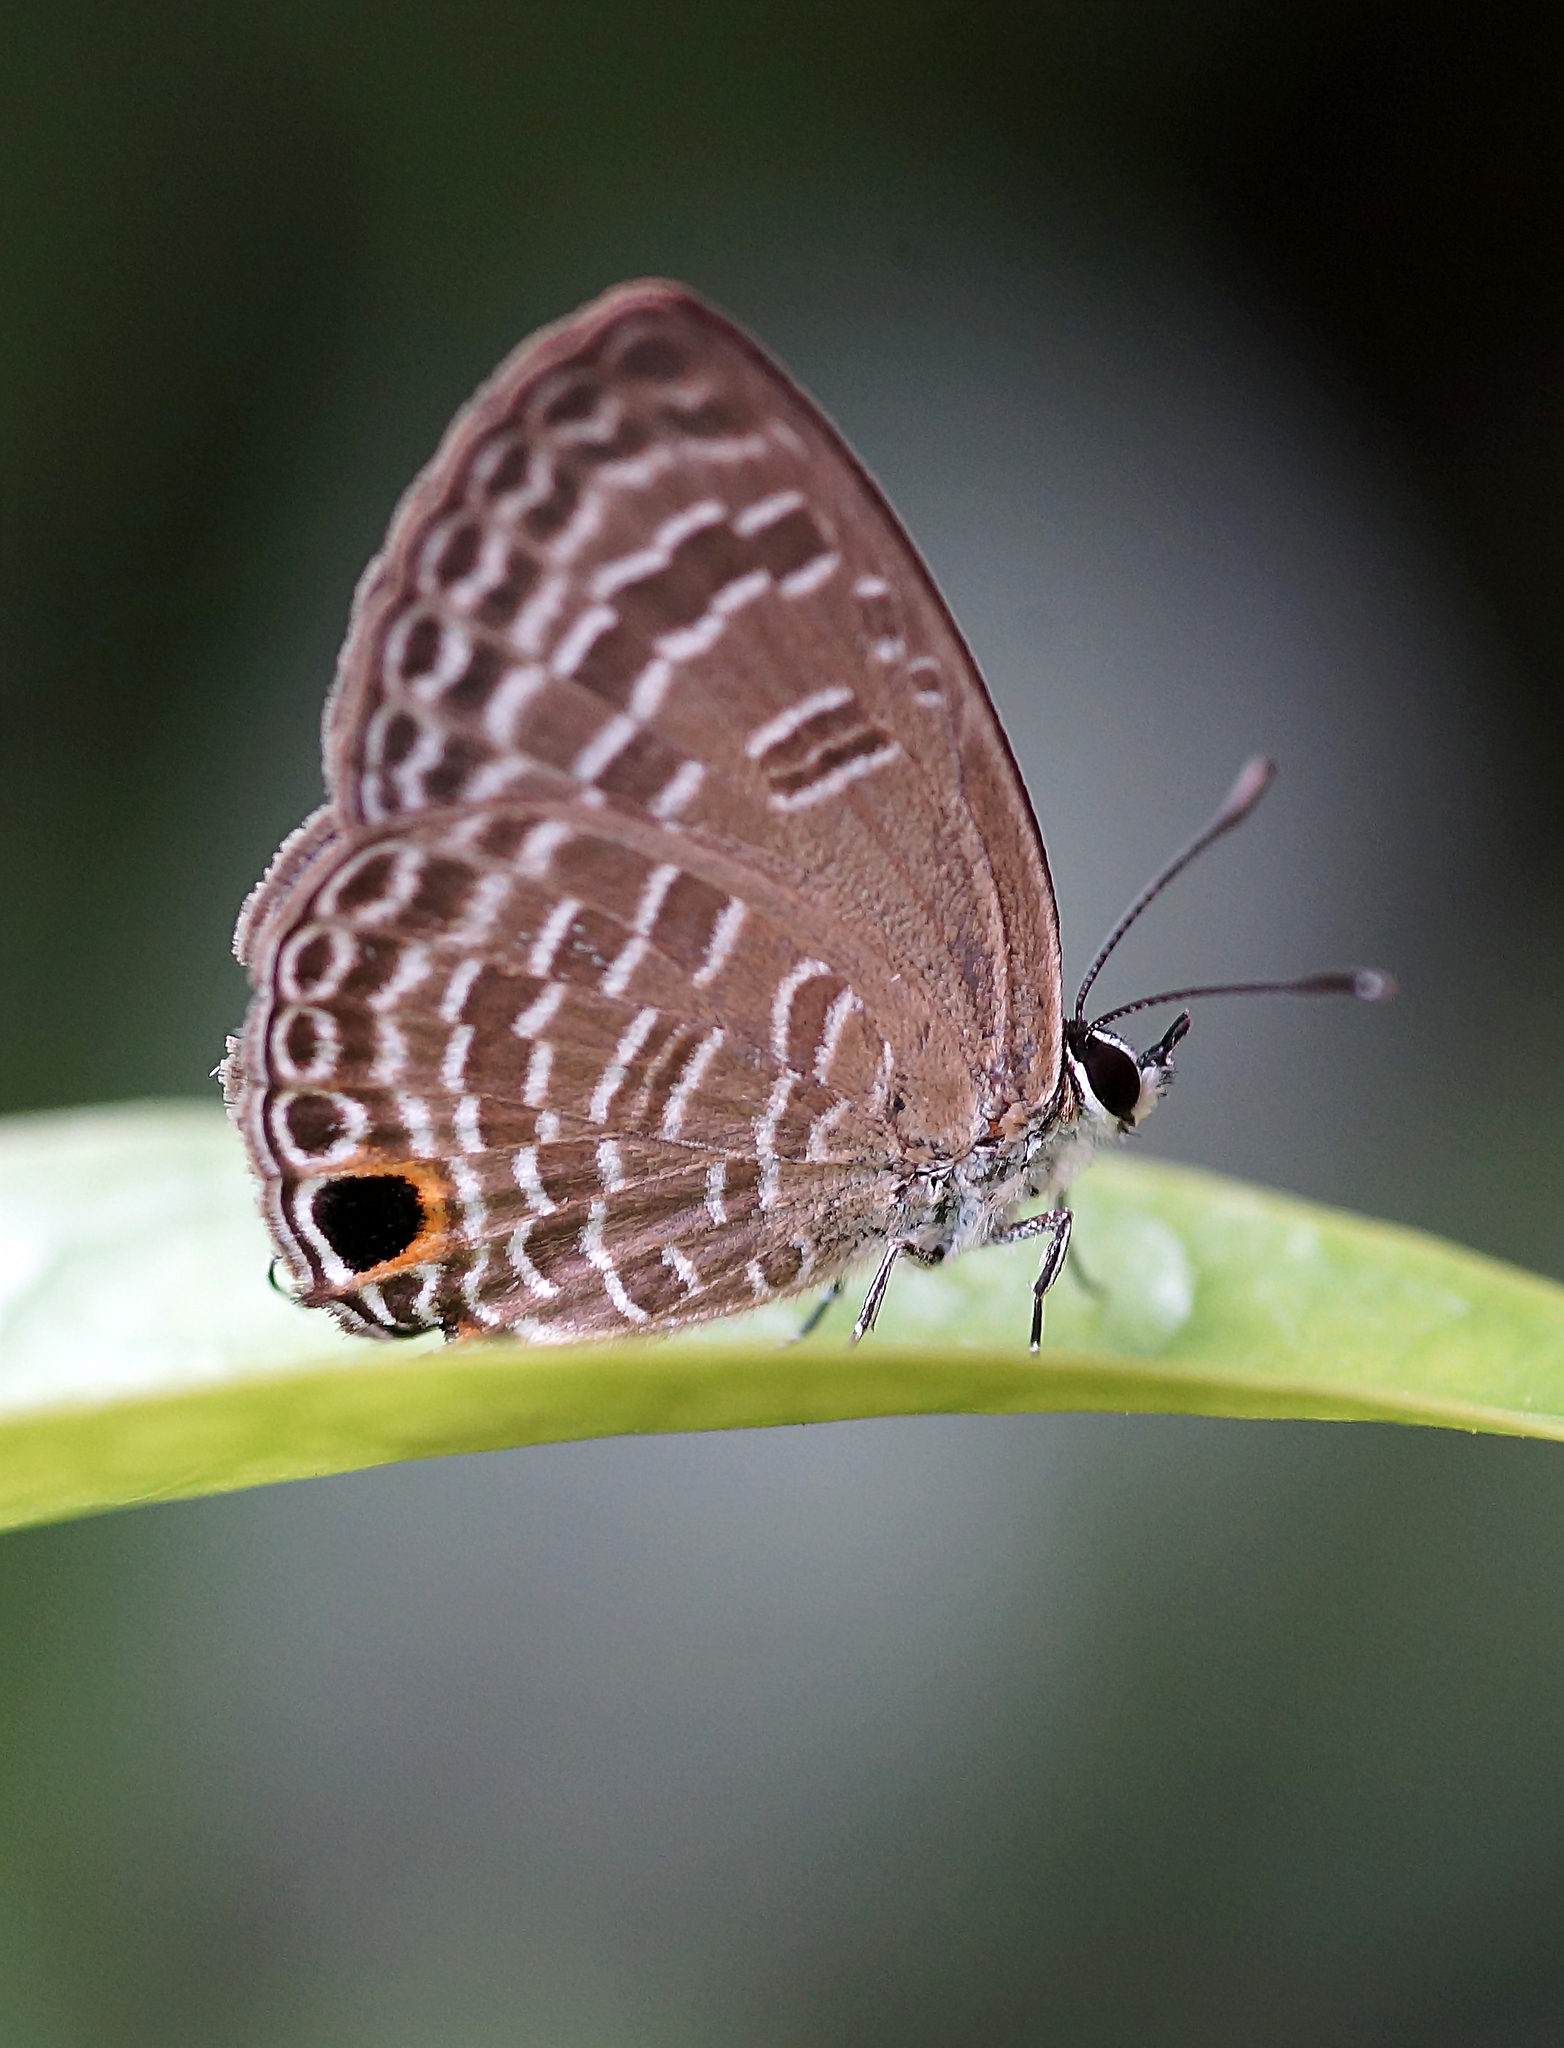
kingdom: Animalia
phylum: Arthropoda
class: Insecta
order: Lepidoptera
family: Lycaenidae
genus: Nacaduba
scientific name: Nacaduba sanaya
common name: Jewel fourline blue
